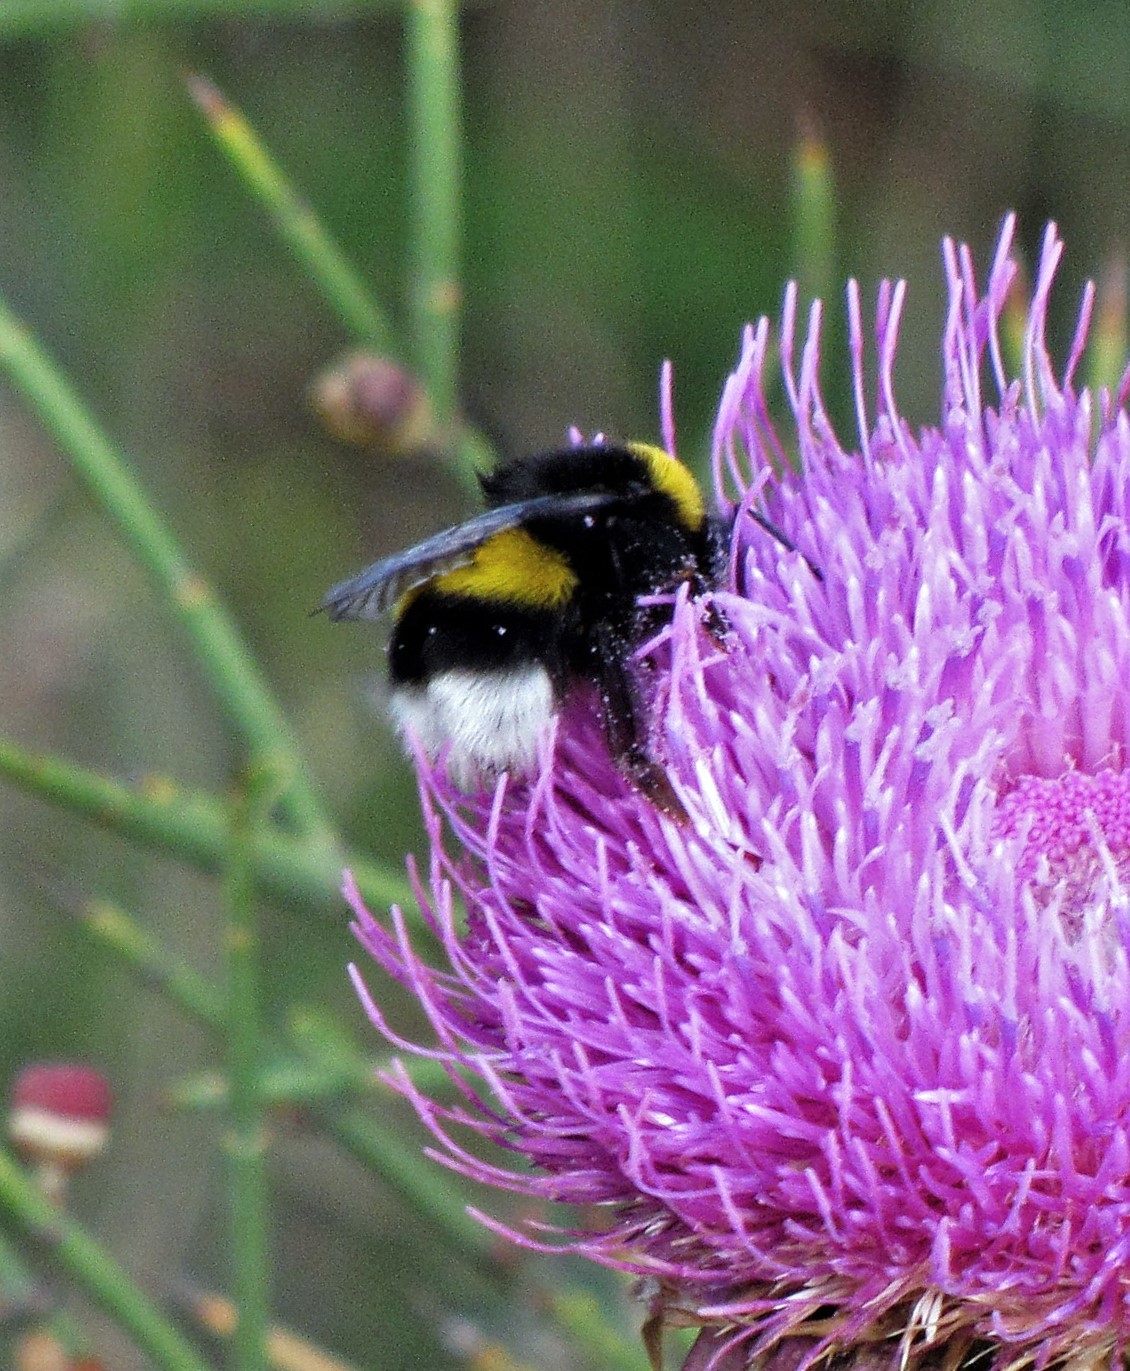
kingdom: Animalia
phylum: Arthropoda
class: Insecta
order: Hymenoptera
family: Apidae
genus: Bombus
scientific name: Bombus terrestris
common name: Buff-tailed bumblebee
